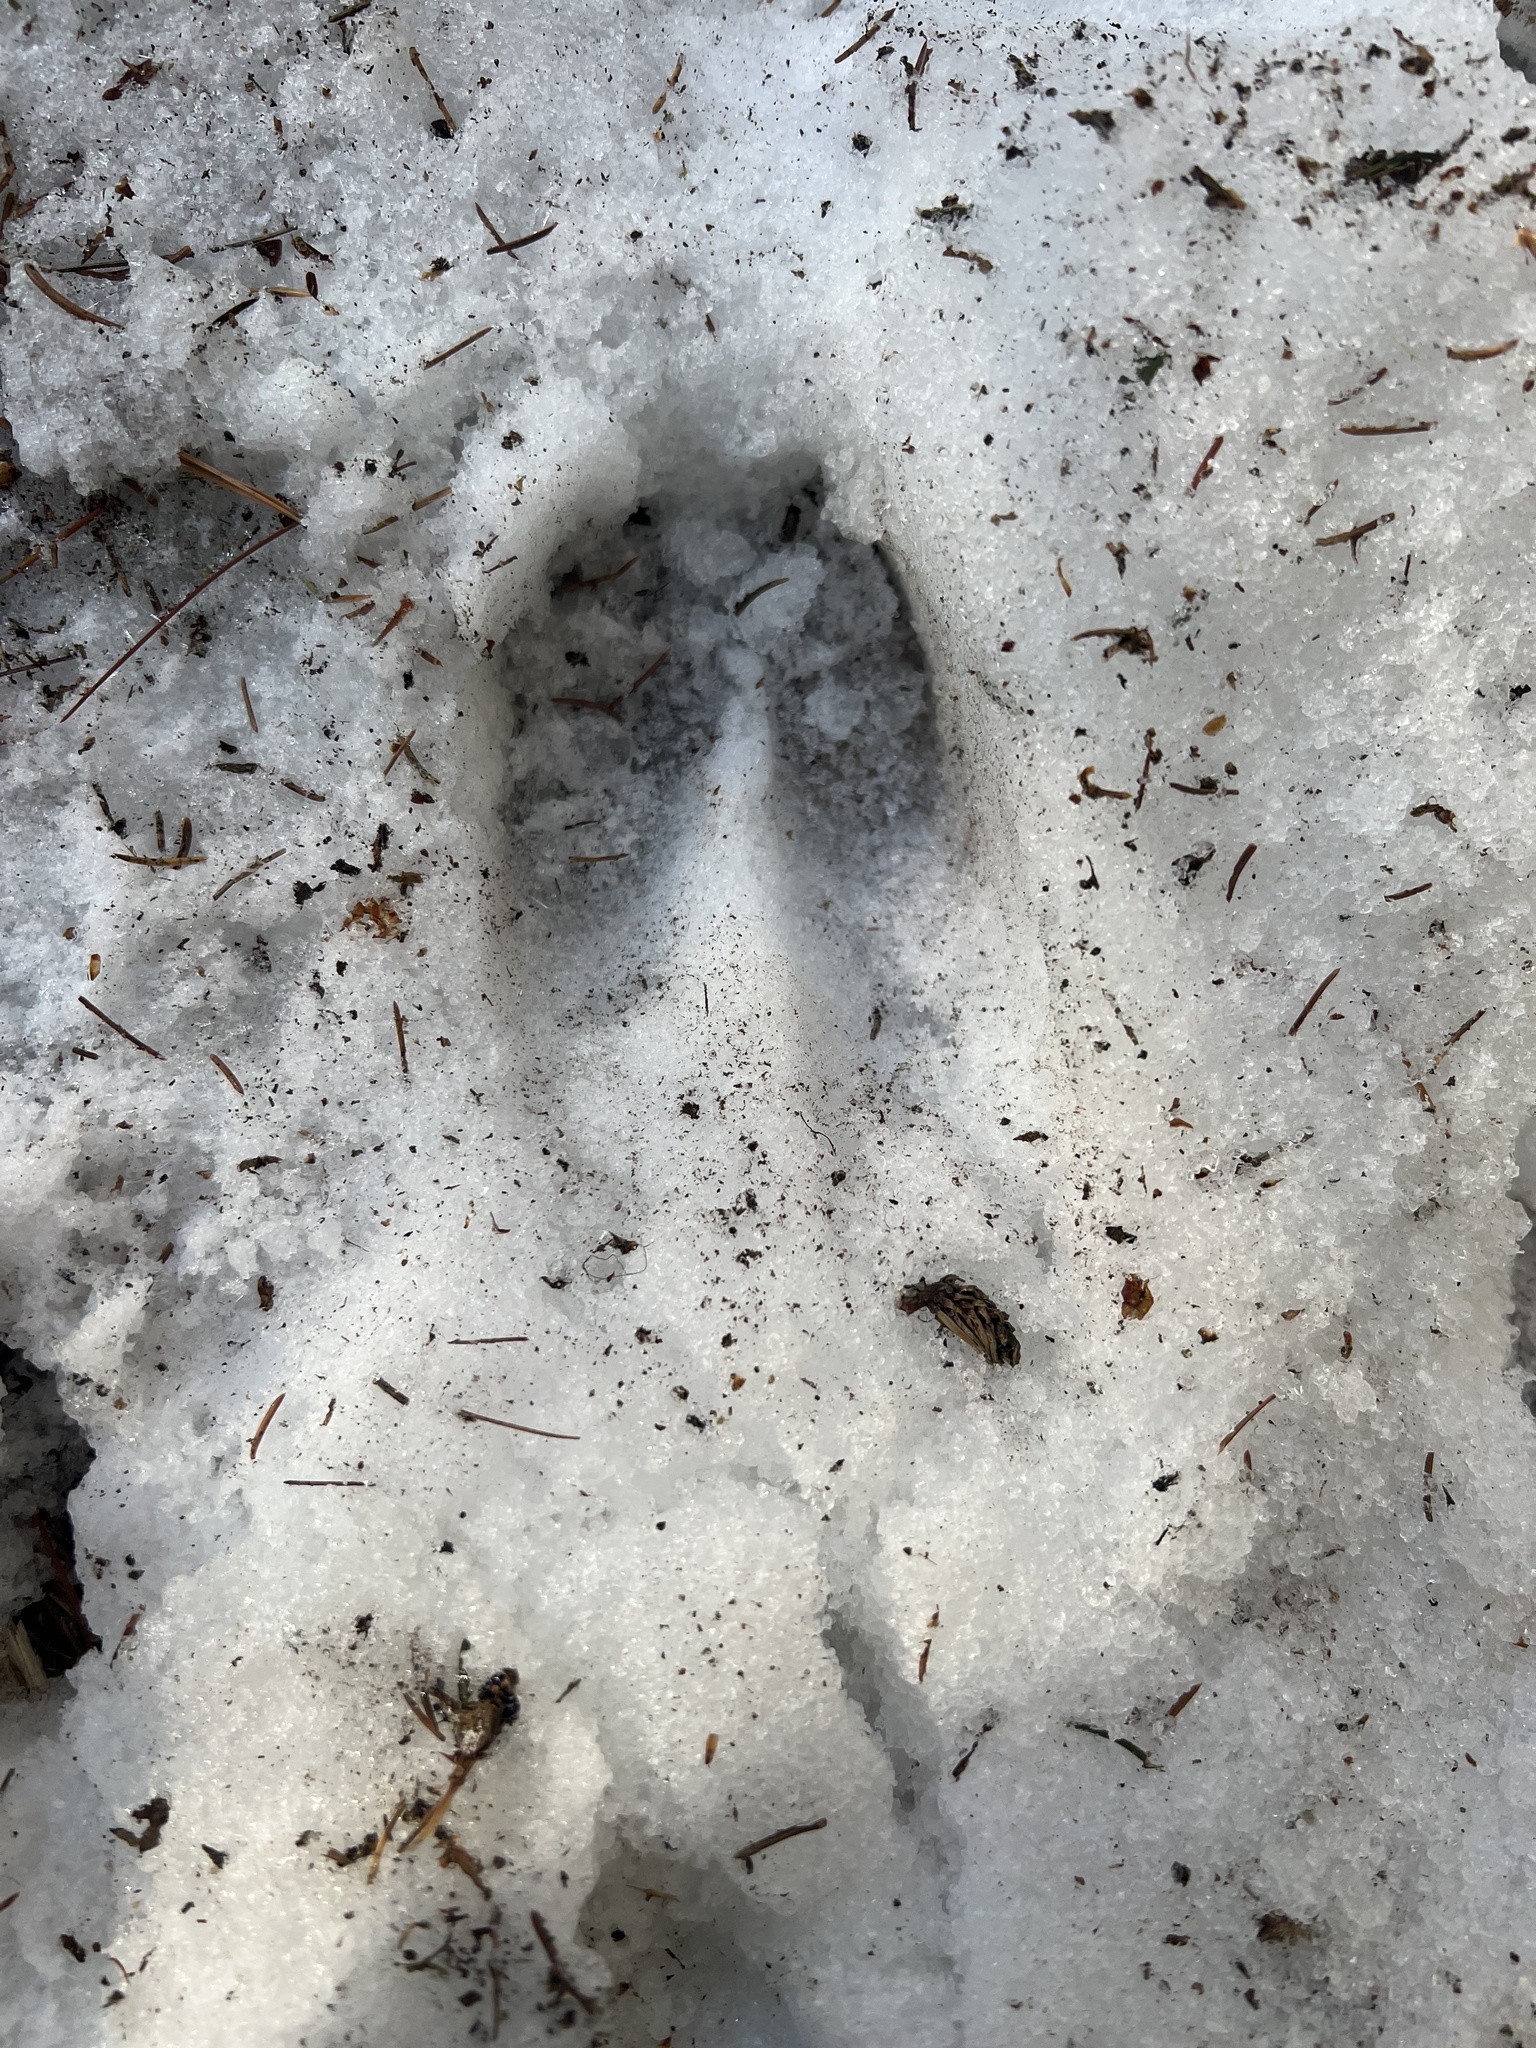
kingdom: Animalia
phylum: Chordata
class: Mammalia
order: Artiodactyla
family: Cervidae
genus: Odocoileus
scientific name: Odocoileus virginianus
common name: White-tailed deer
